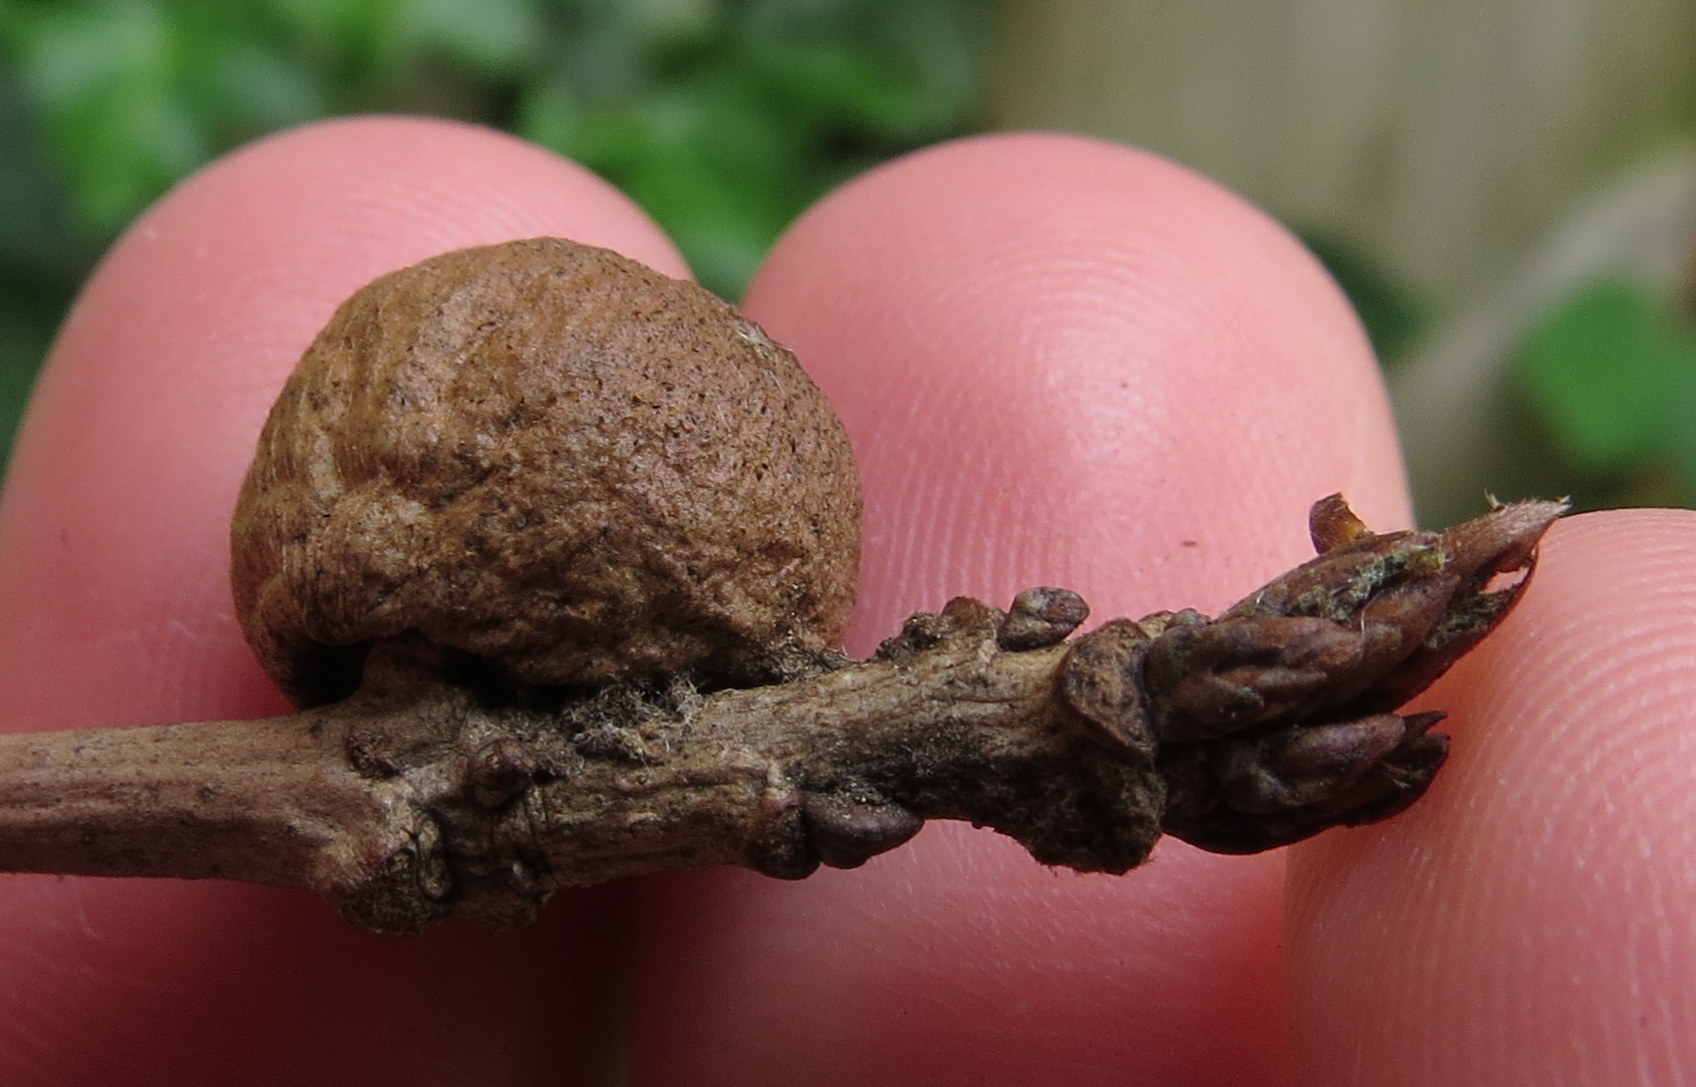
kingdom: Animalia
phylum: Arthropoda
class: Insecta
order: Hymenoptera
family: Cynipidae
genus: Disholcaspis
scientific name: Disholcaspis
